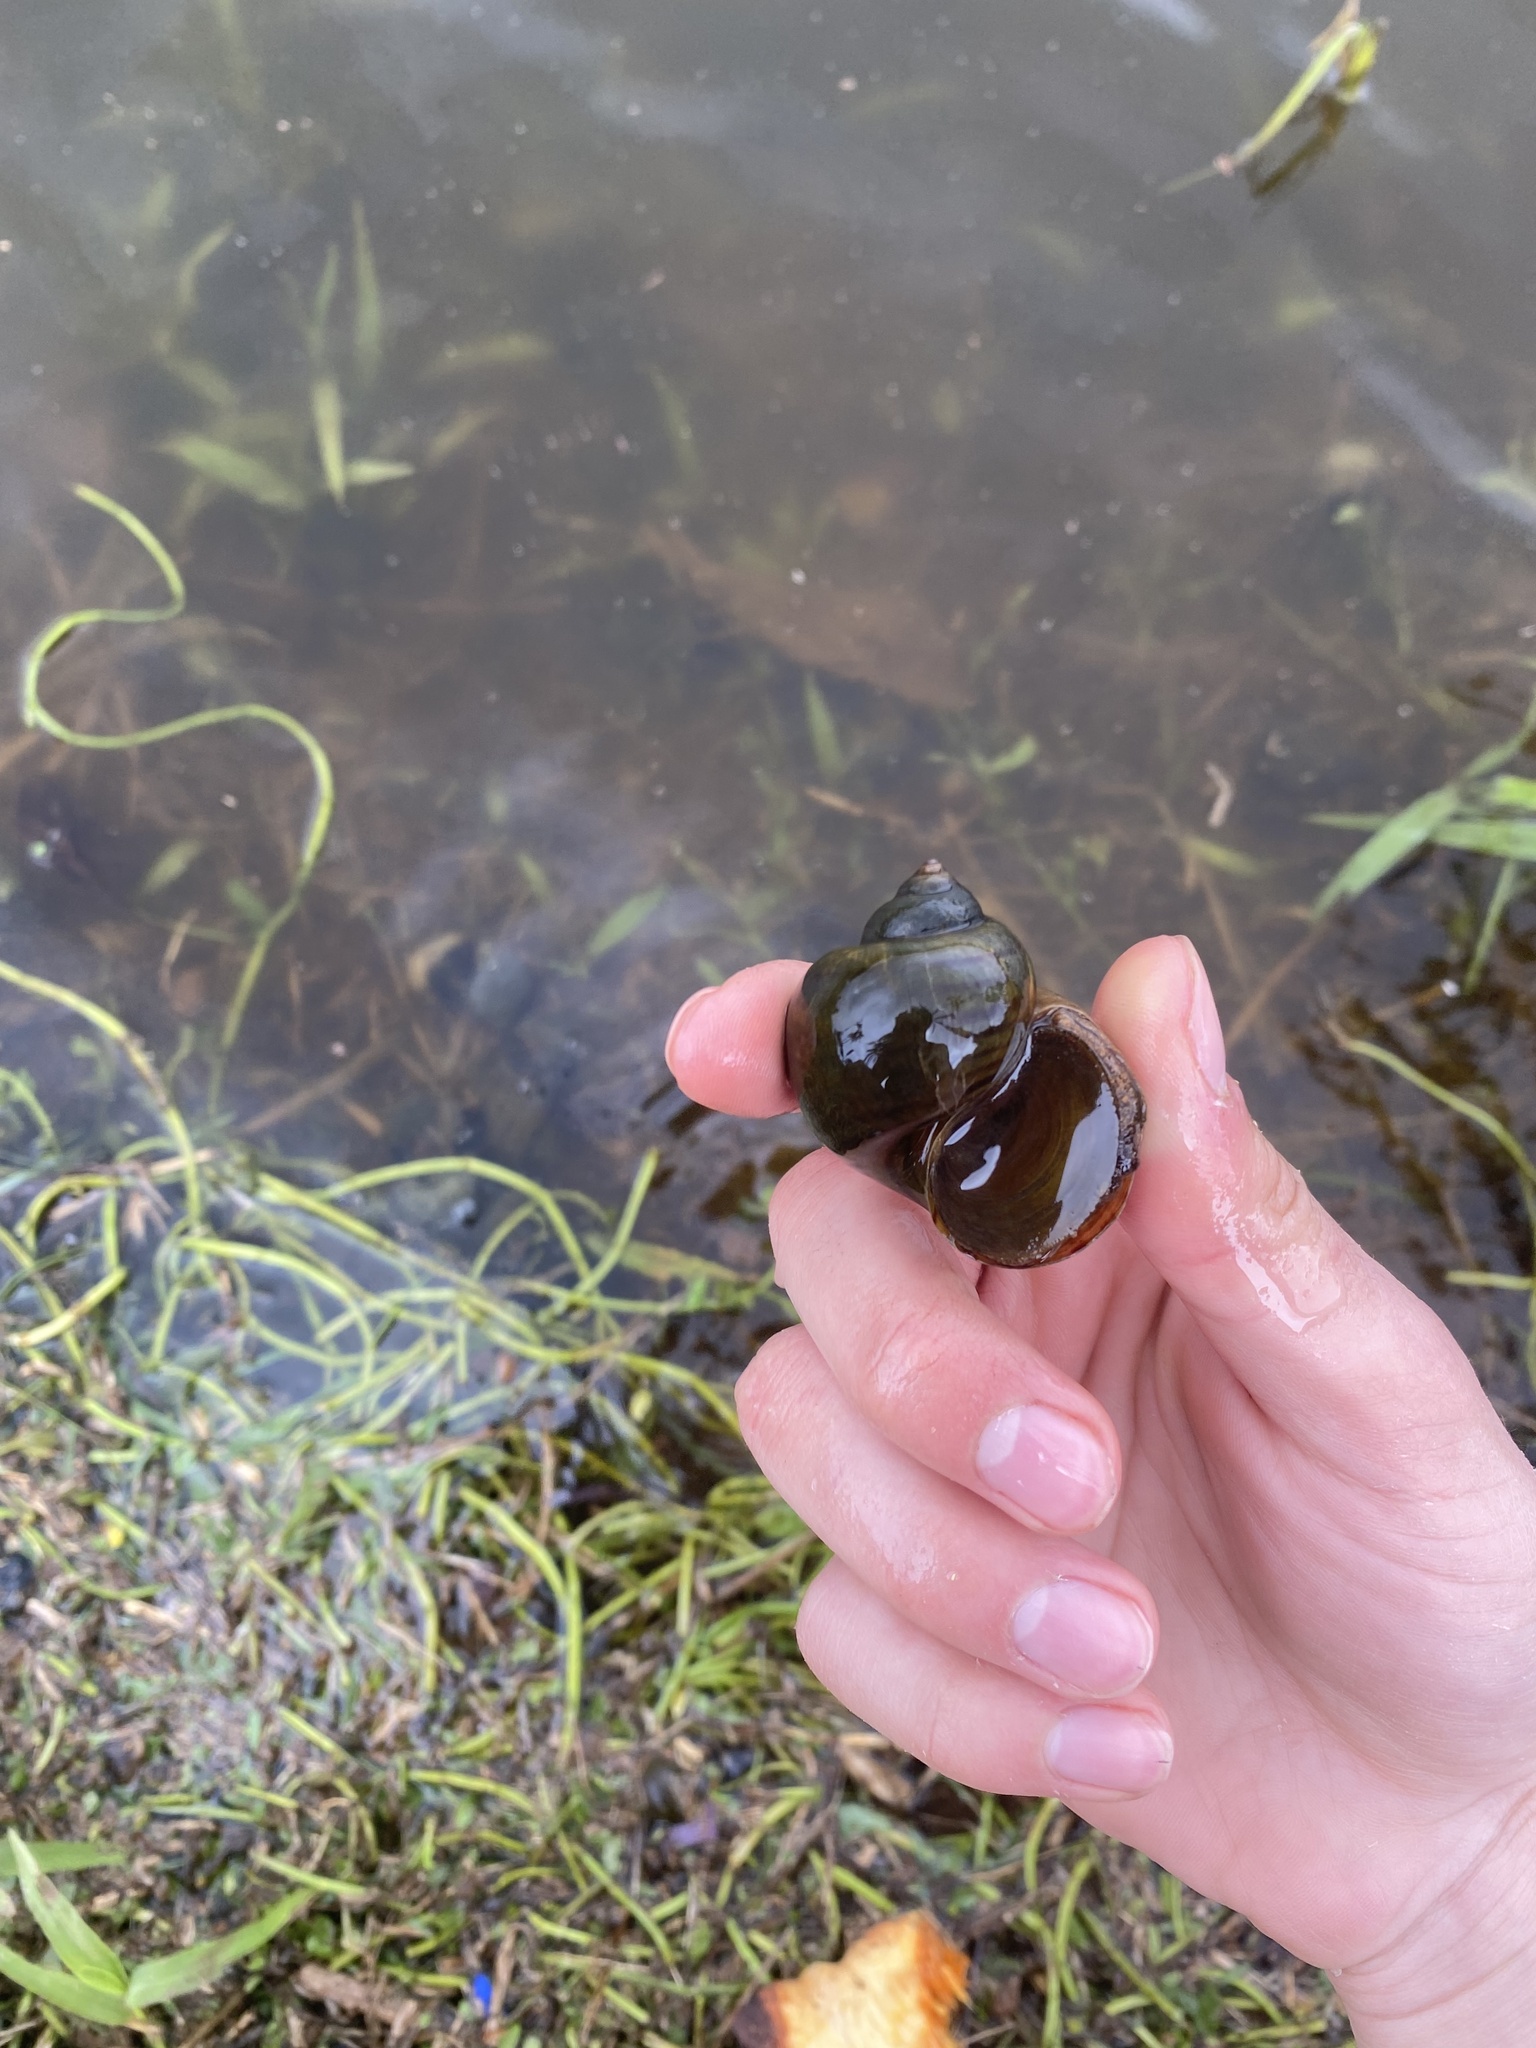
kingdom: Animalia
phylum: Mollusca
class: Gastropoda
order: Architaenioglossa
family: Ampullariidae
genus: Pomacea
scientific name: Pomacea canaliculata
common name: Channeled applesnail
